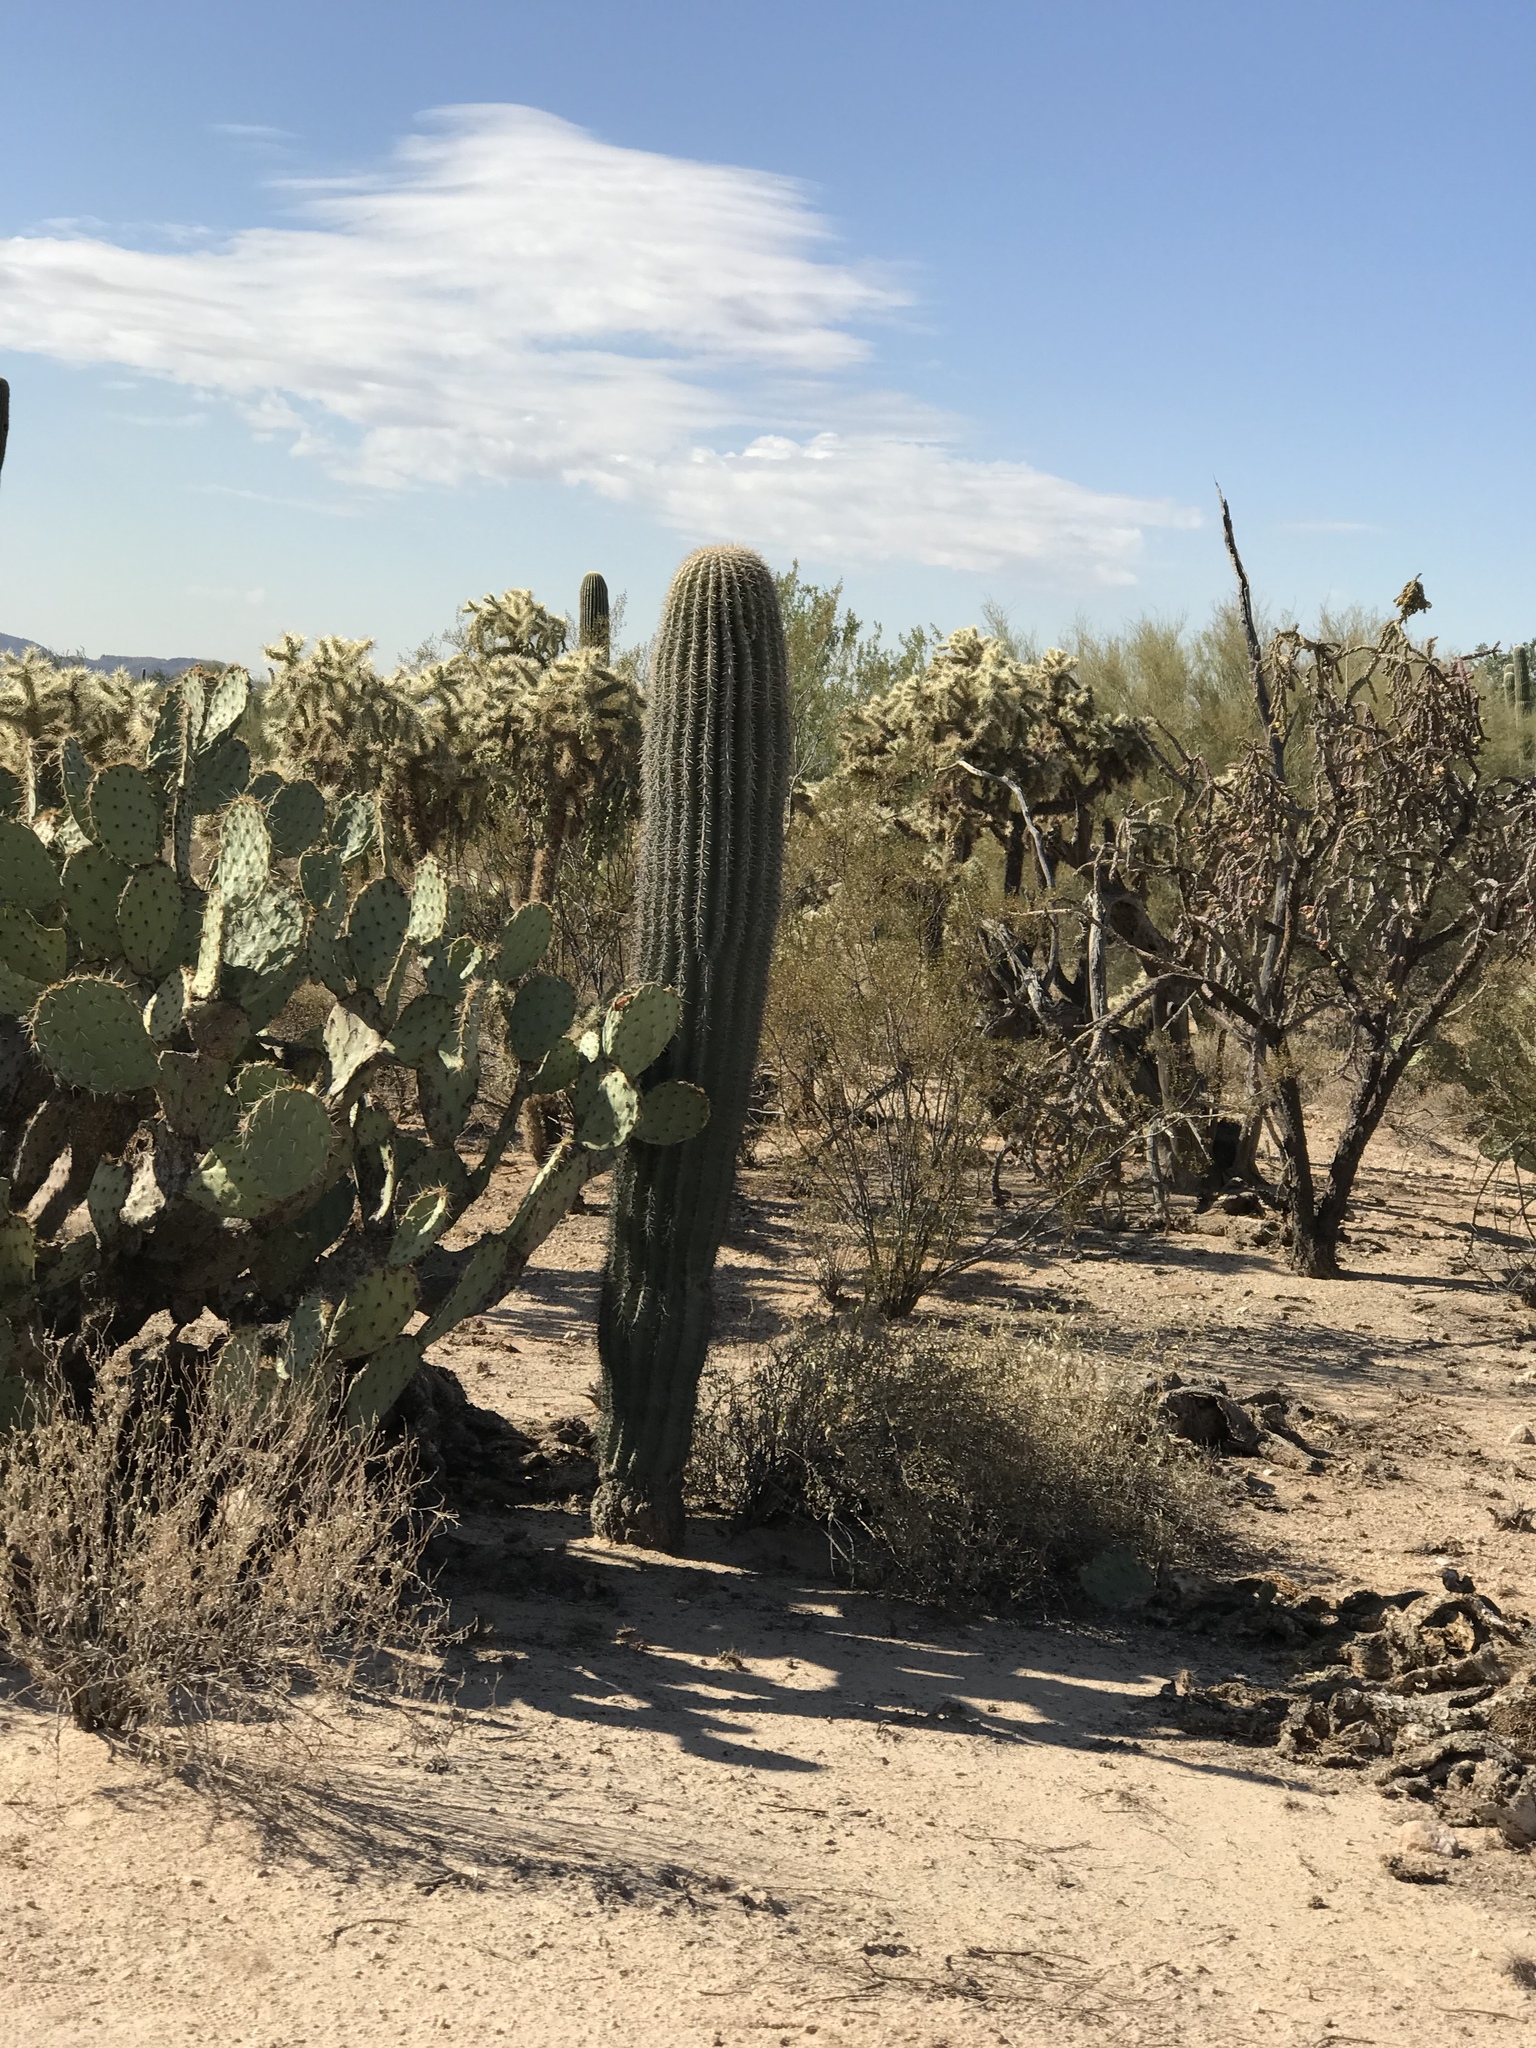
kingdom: Plantae
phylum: Tracheophyta
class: Magnoliopsida
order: Caryophyllales
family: Cactaceae
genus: Carnegiea
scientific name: Carnegiea gigantea
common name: Saguaro
